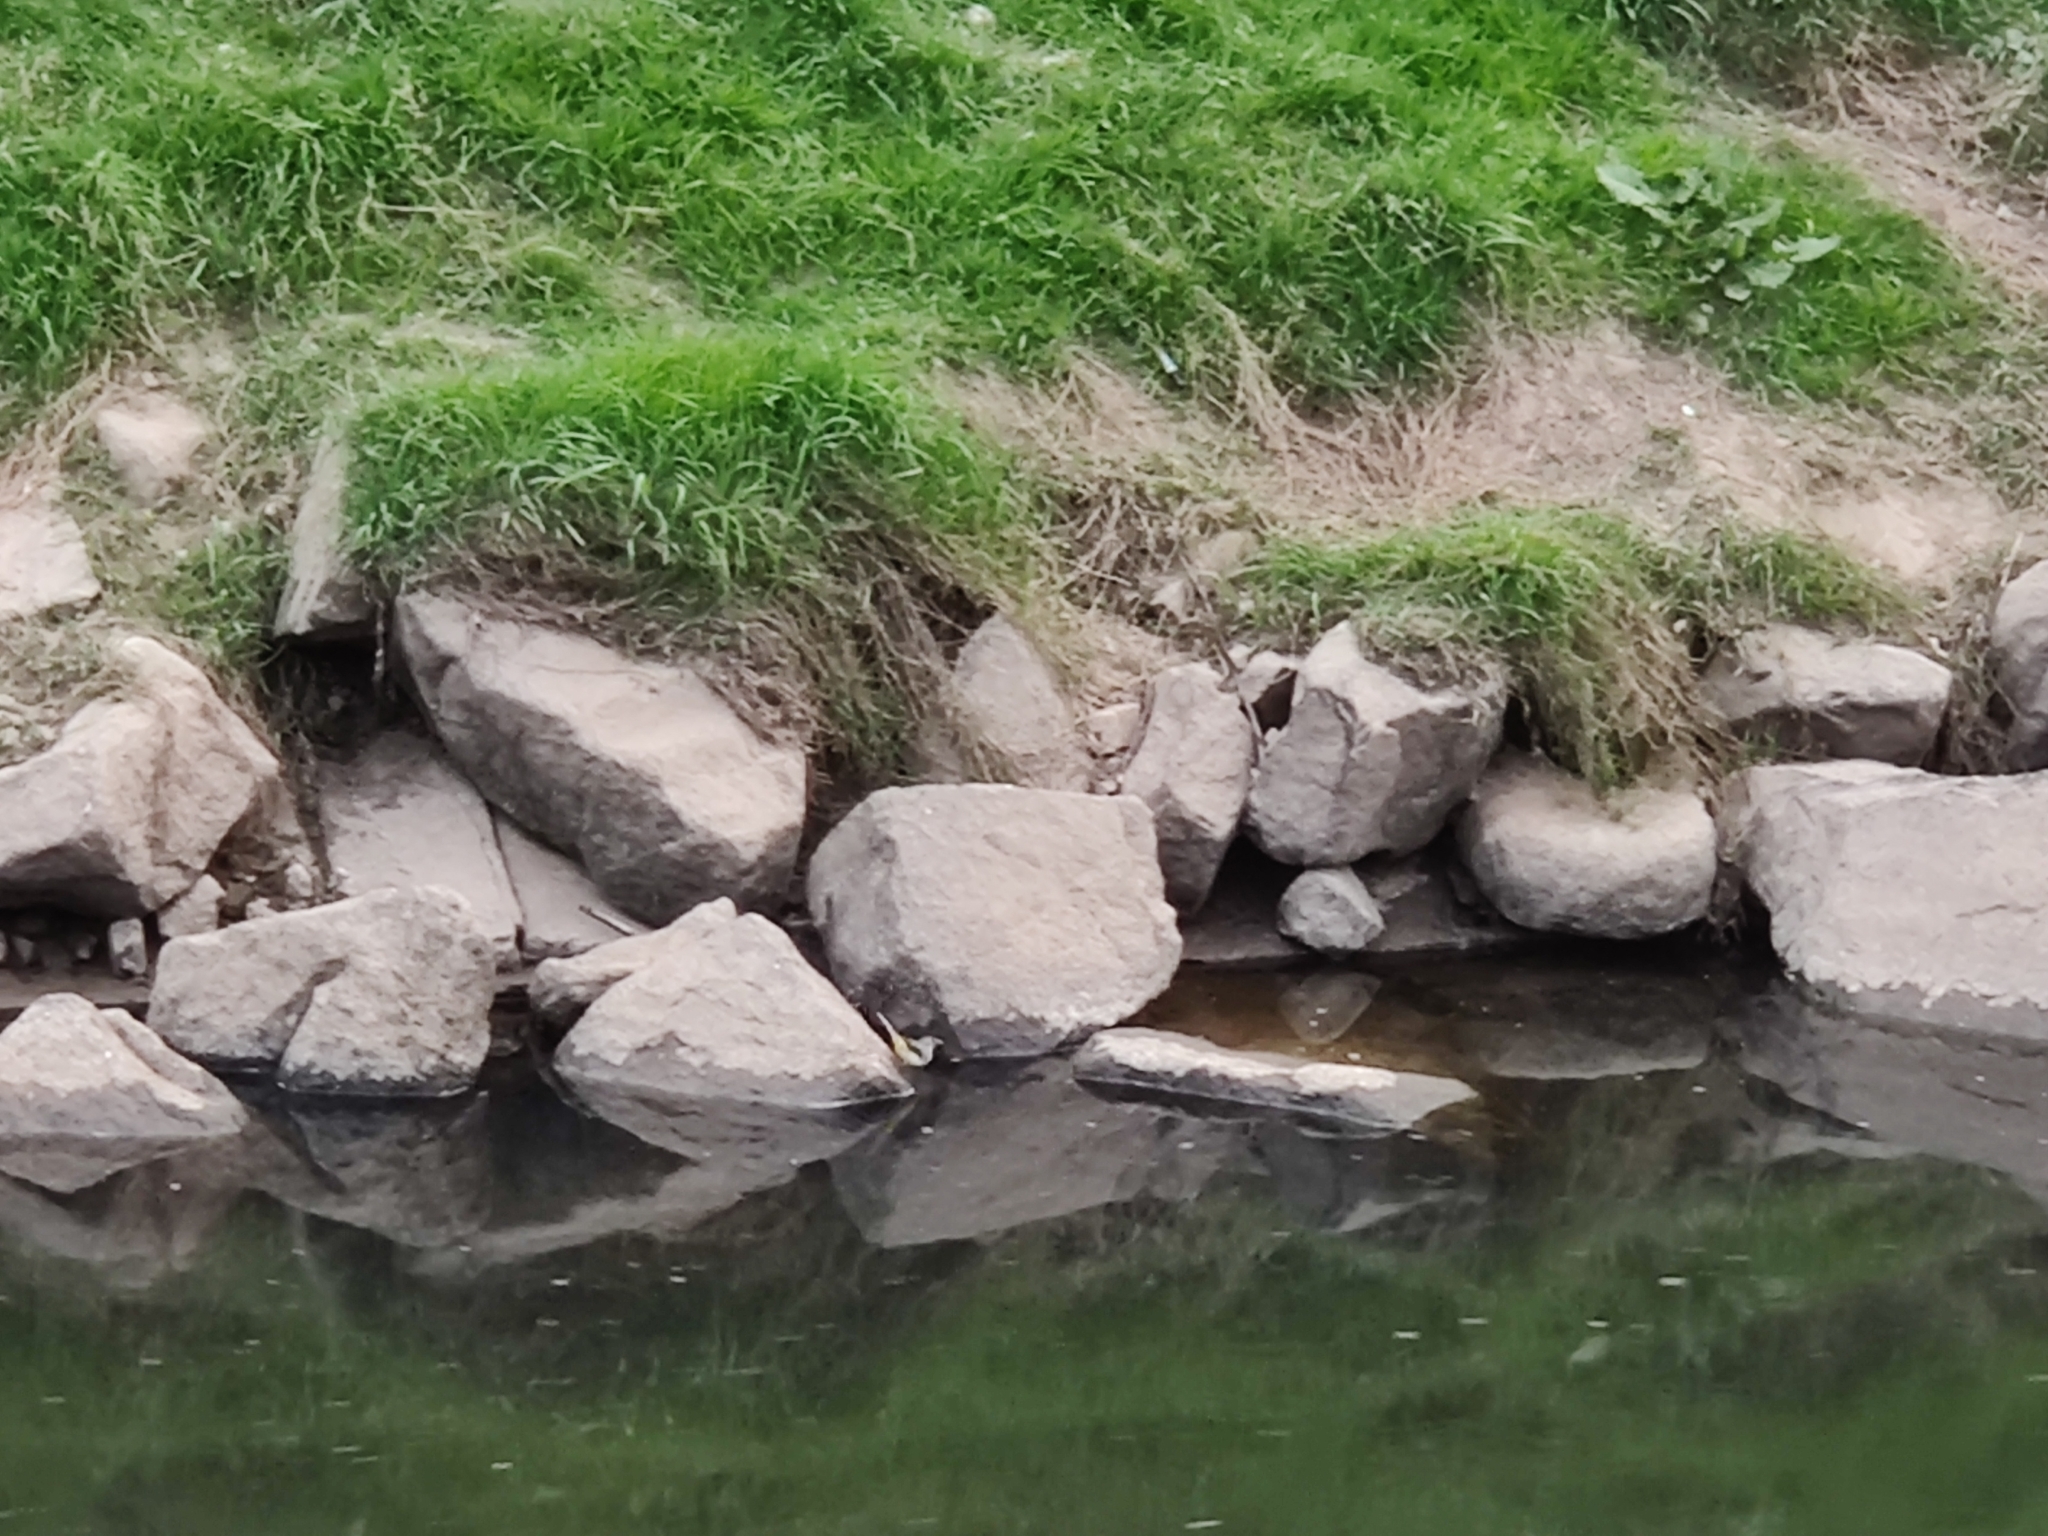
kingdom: Animalia
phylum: Chordata
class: Aves
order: Passeriformes
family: Motacillidae
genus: Motacilla
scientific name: Motacilla cinerea
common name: Grey wagtail
